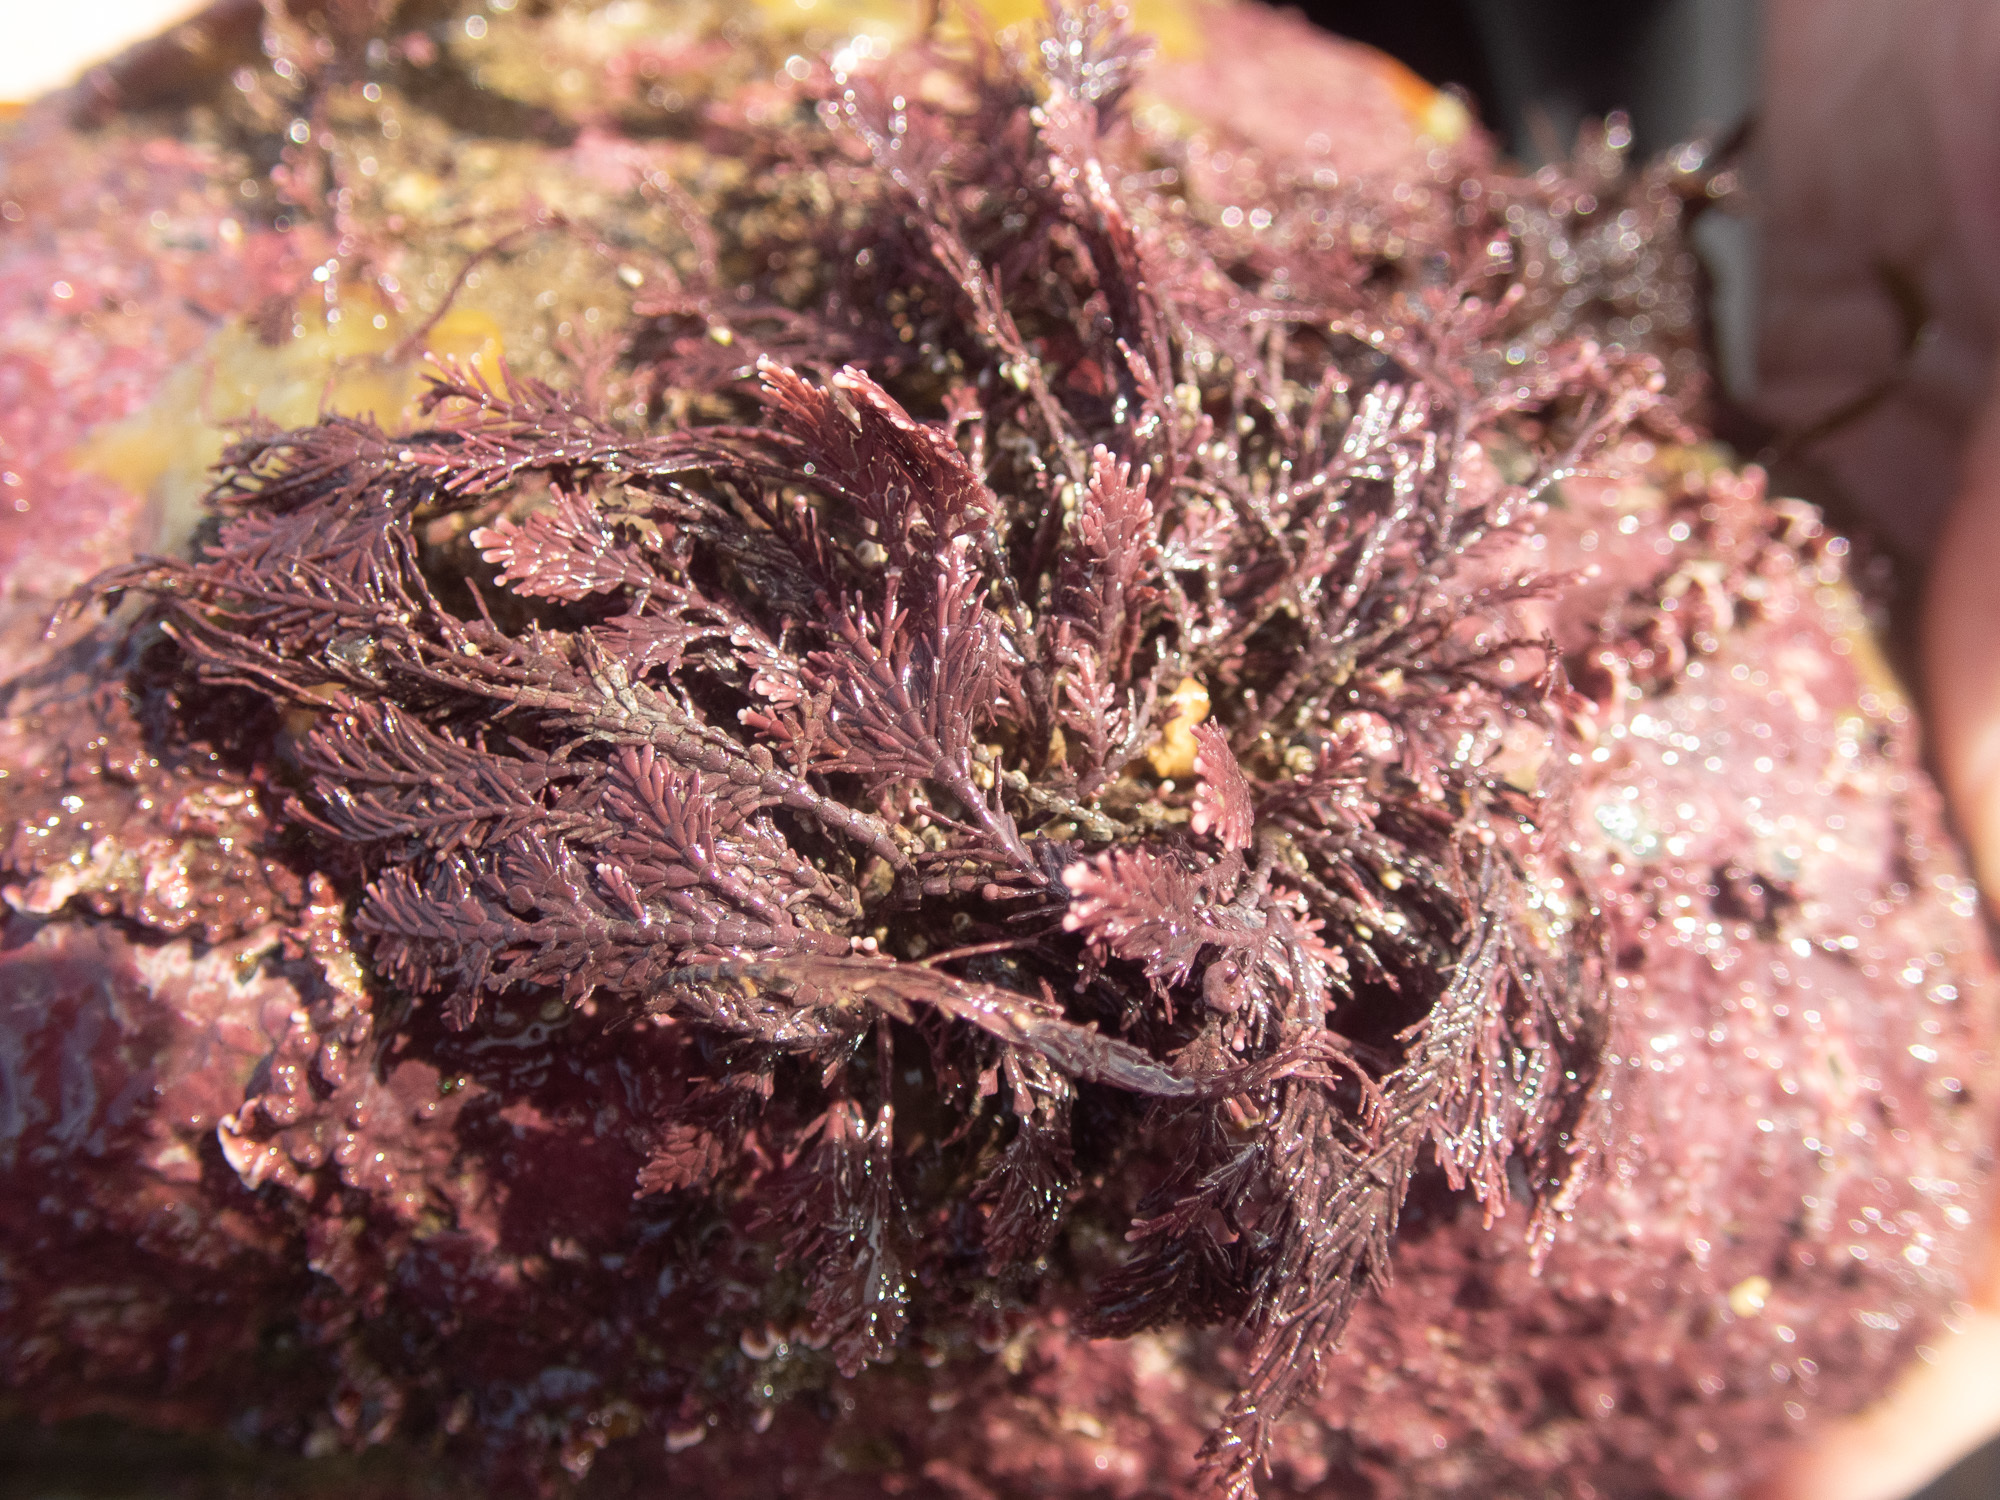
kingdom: Plantae
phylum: Rhodophyta
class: Florideophyceae
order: Corallinales
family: Corallinaceae
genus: Corallina
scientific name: Corallina officinalis
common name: Coral weed
